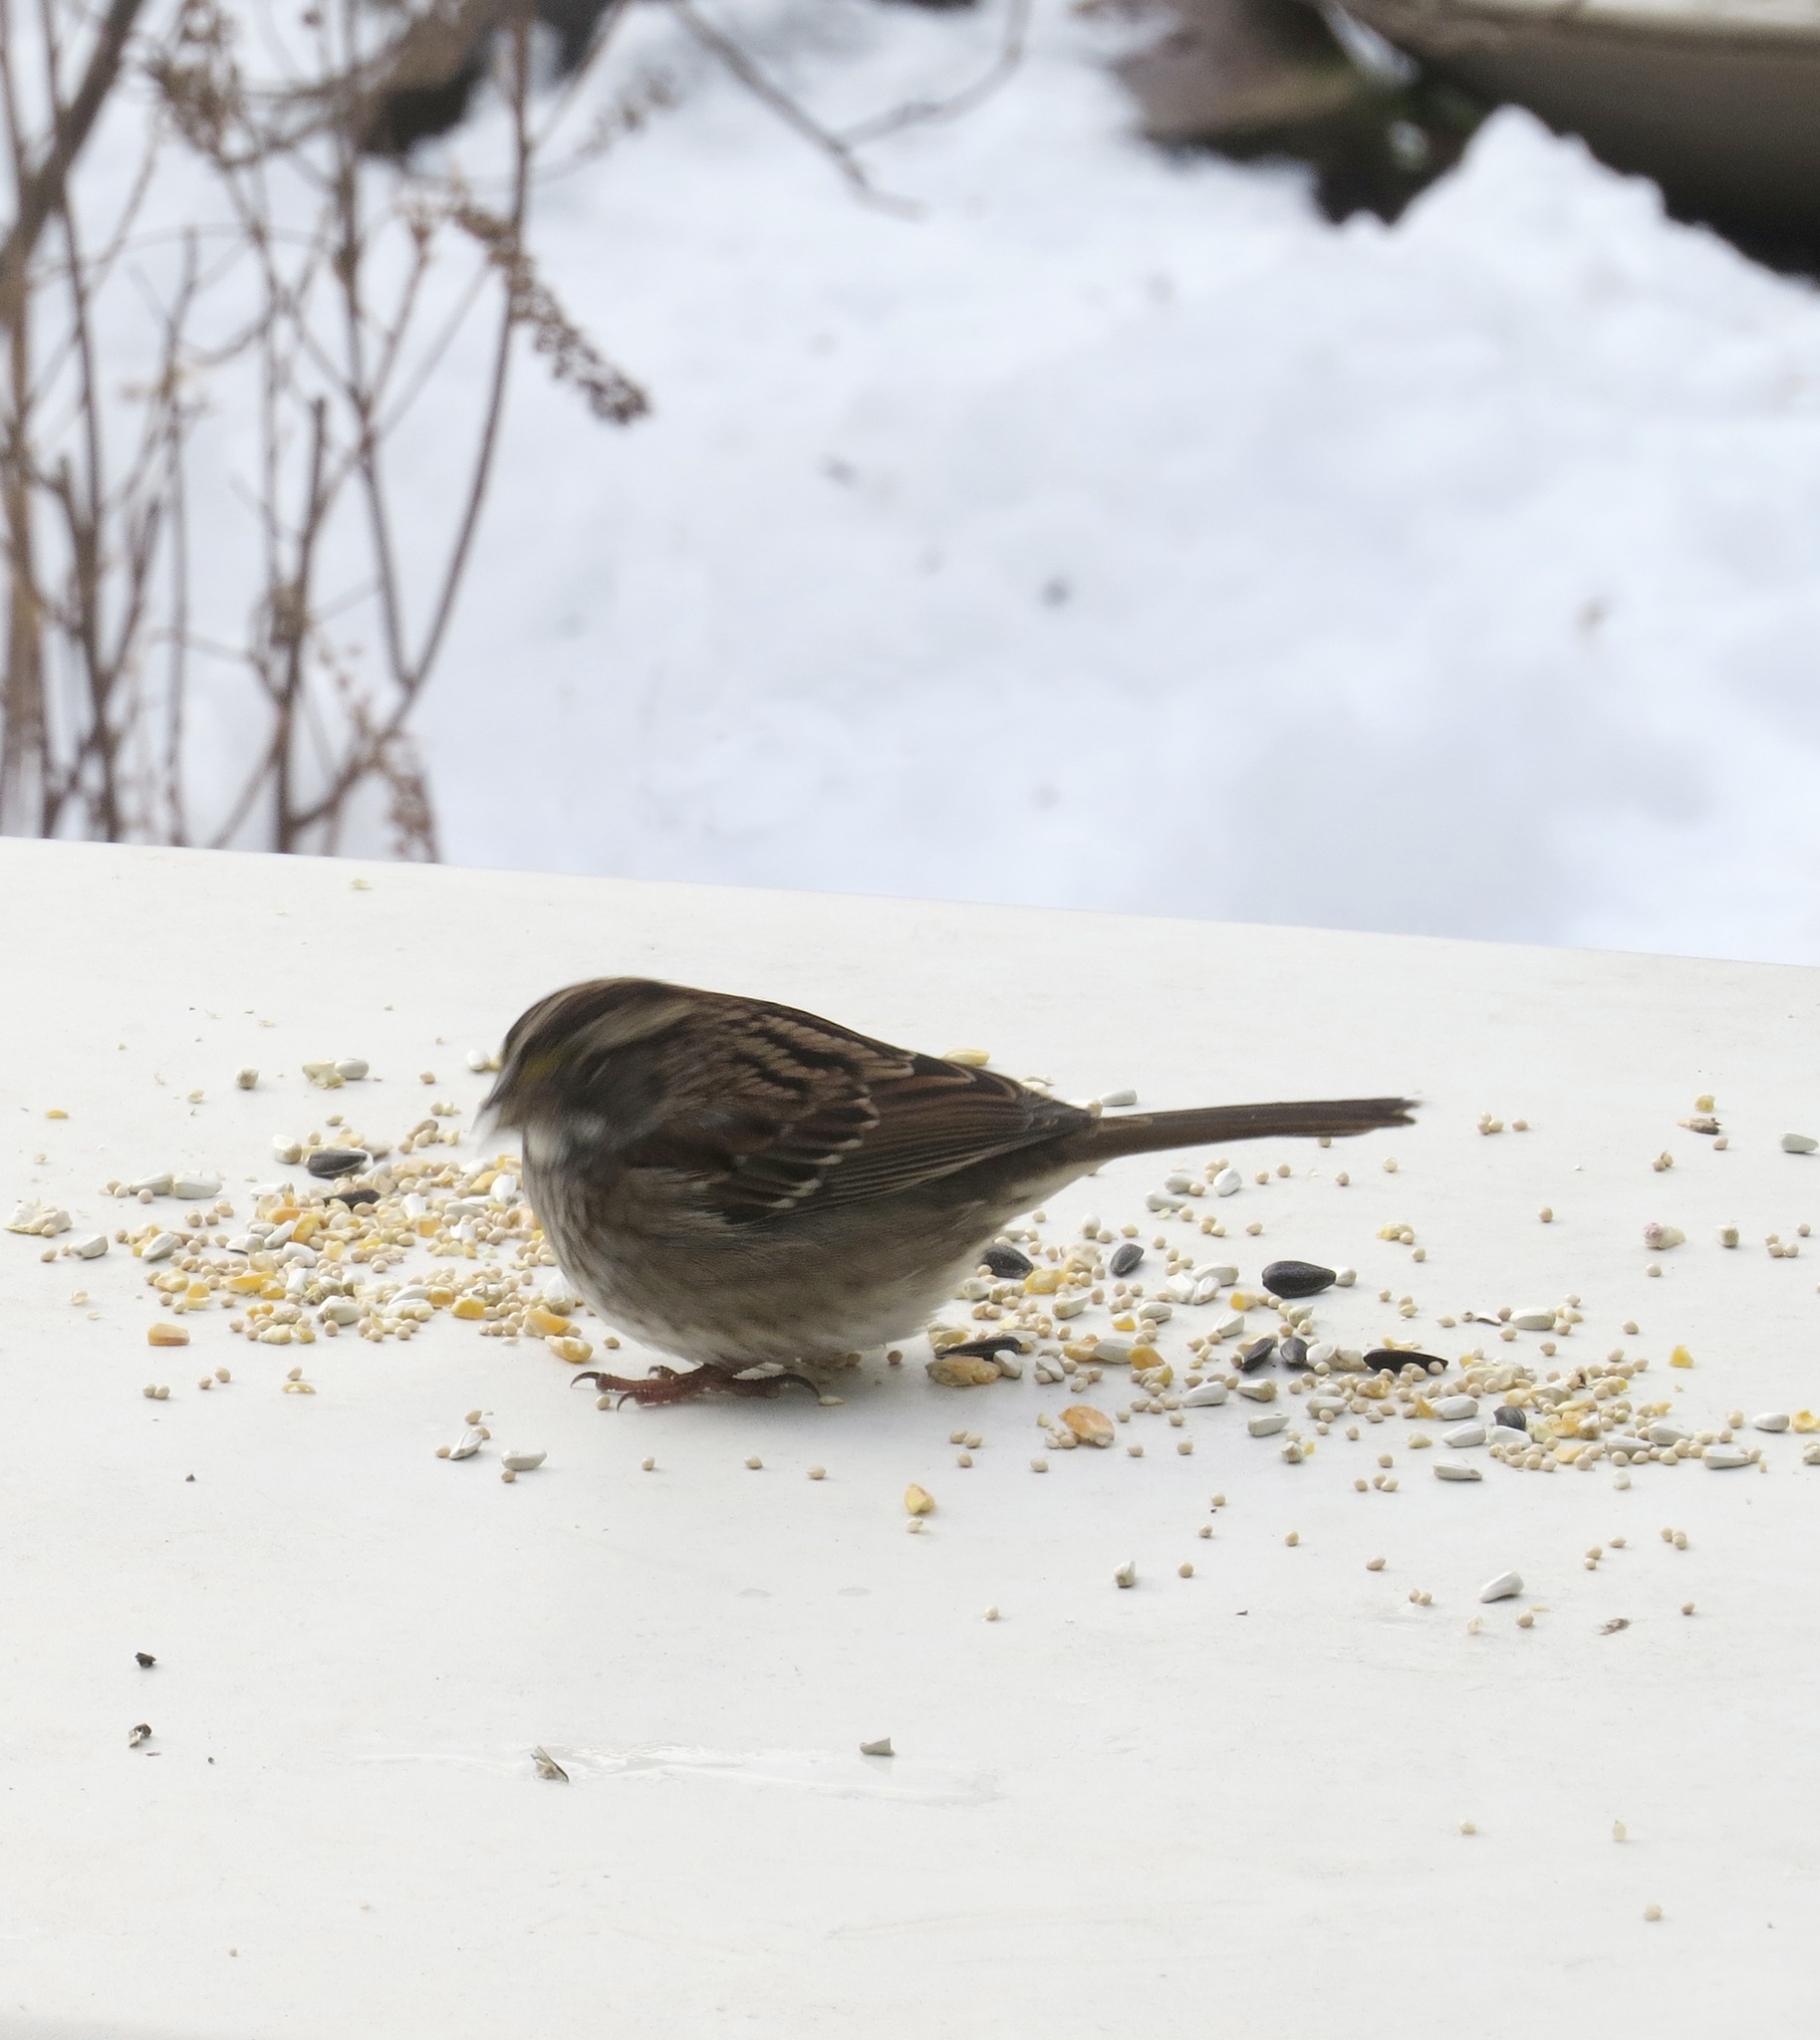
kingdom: Animalia
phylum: Chordata
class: Aves
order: Passeriformes
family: Passerellidae
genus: Zonotrichia
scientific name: Zonotrichia albicollis
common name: White-throated sparrow
